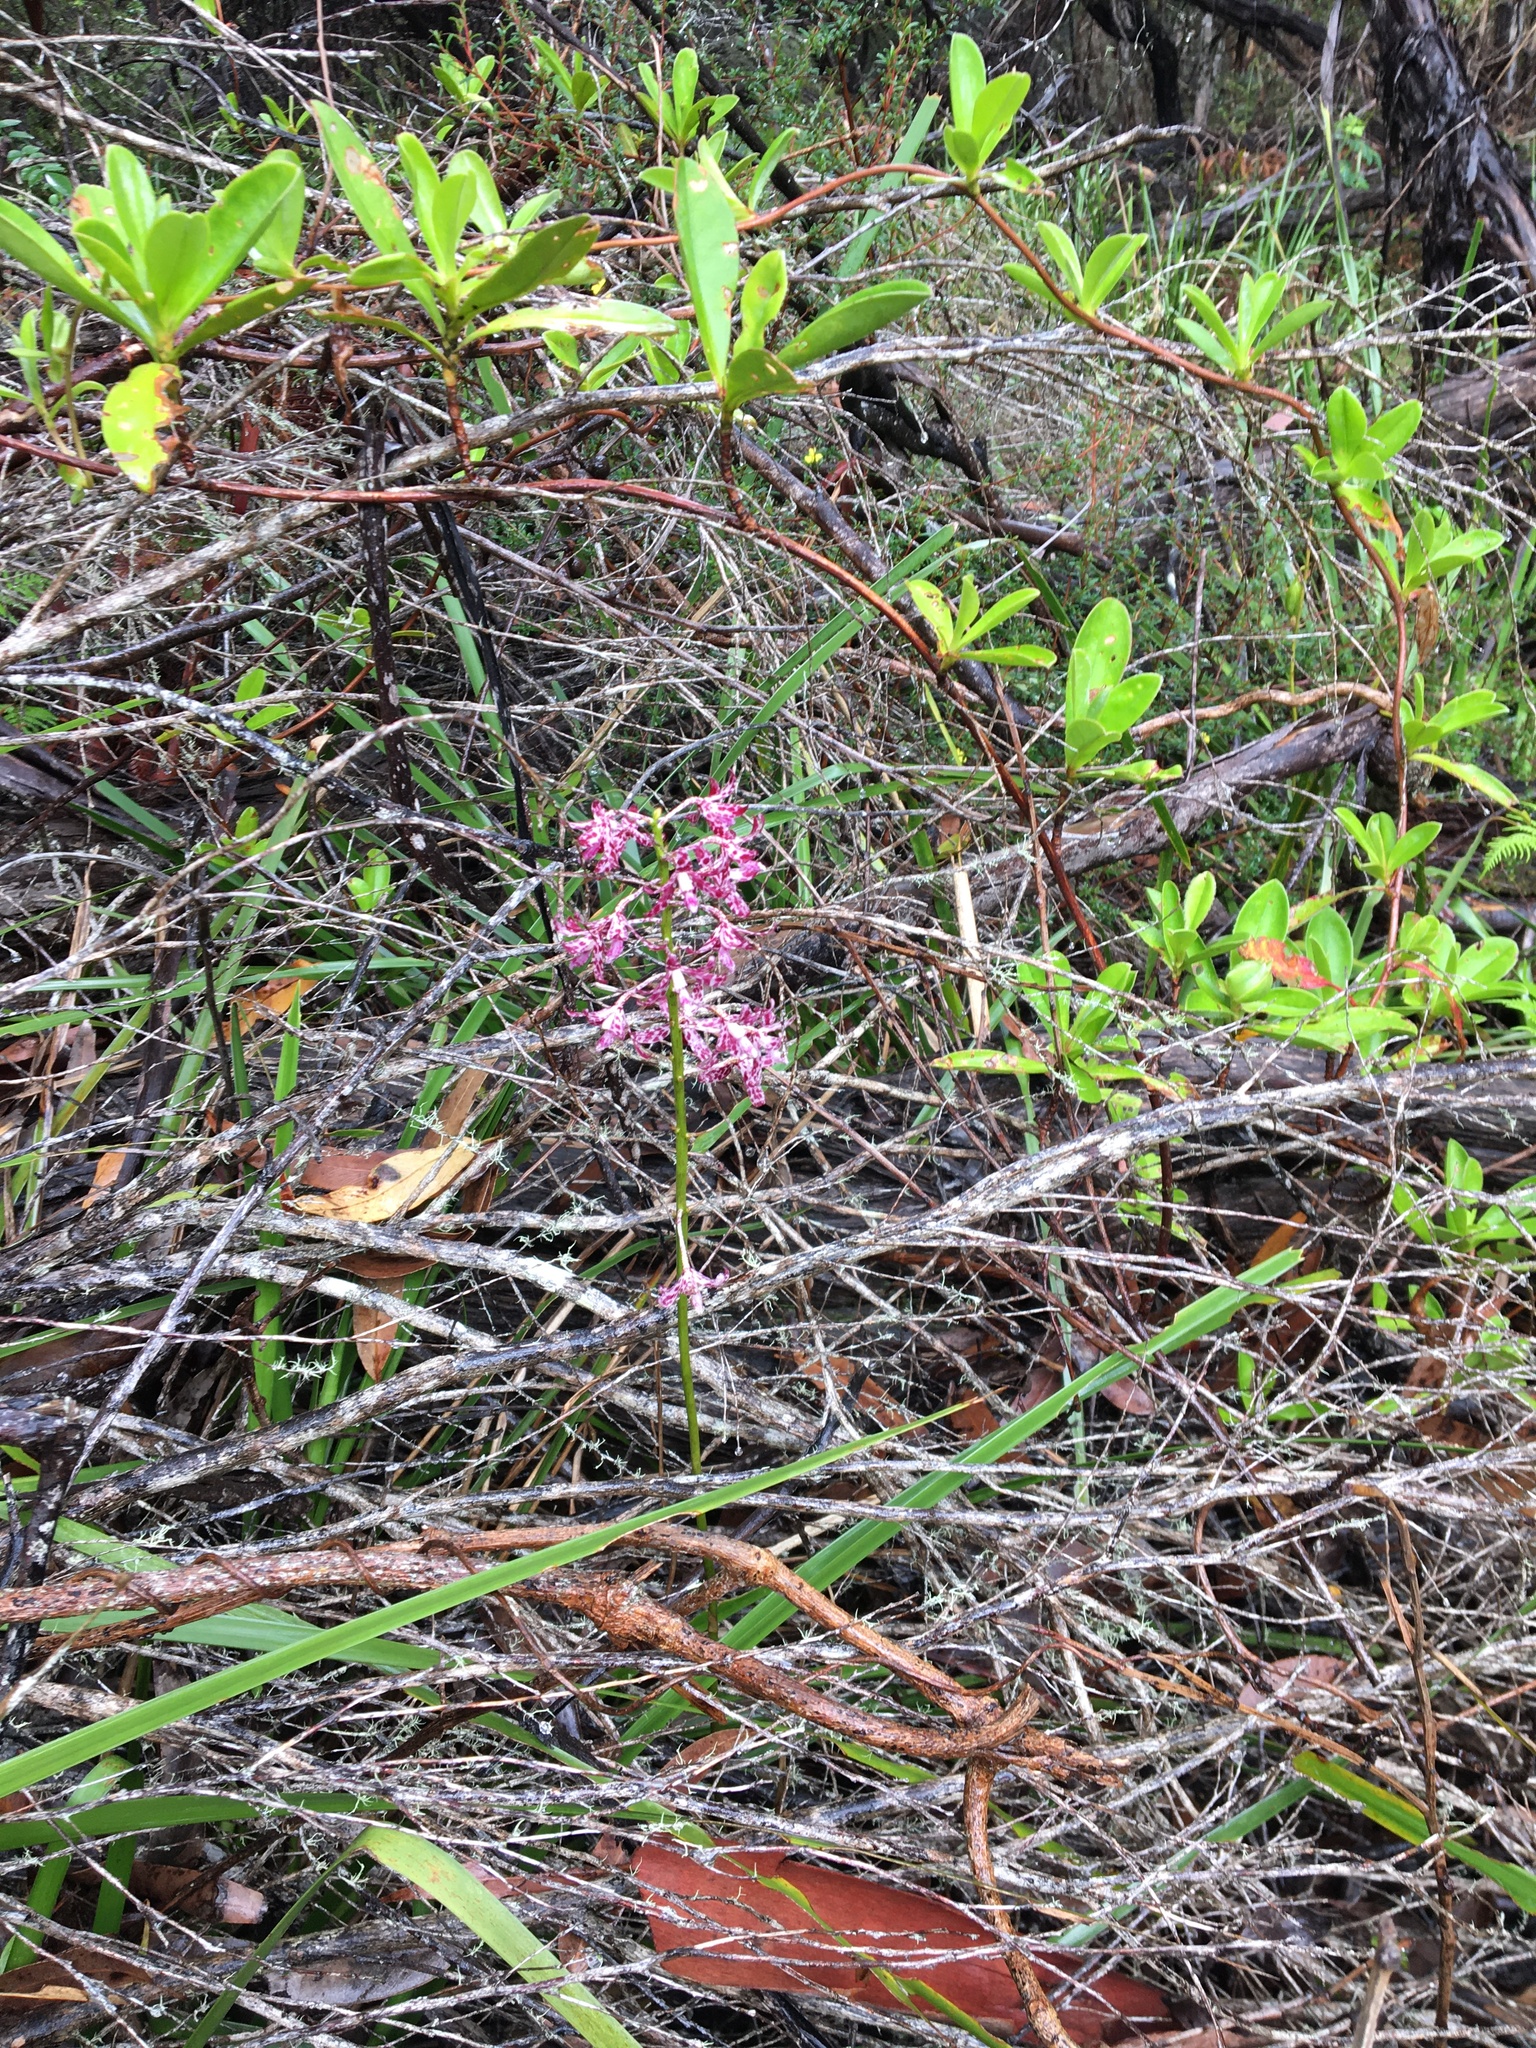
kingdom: Plantae
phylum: Tracheophyta
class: Liliopsida
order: Asparagales
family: Orchidaceae
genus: Dipodium
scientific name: Dipodium variegatum
